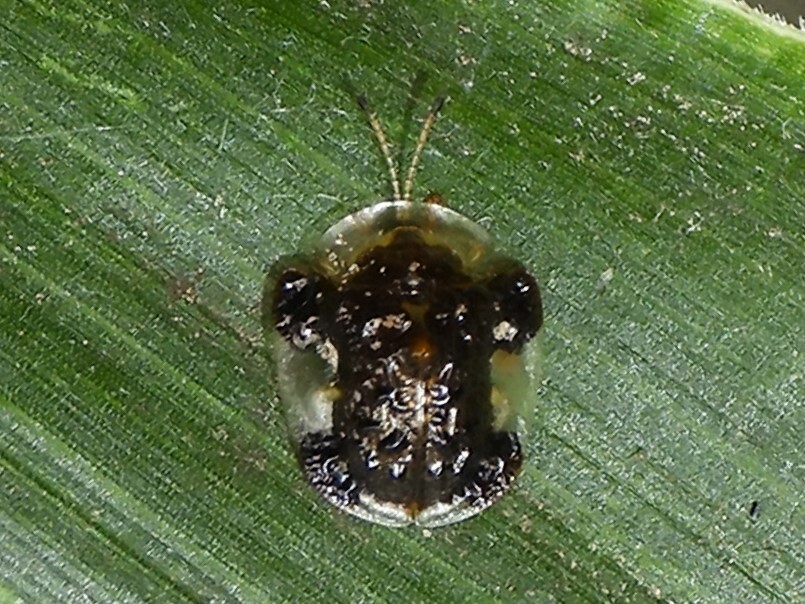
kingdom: Animalia
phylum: Arthropoda
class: Insecta
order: Coleoptera
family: Chrysomelidae
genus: Helocassis
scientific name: Helocassis clavata
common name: Clavate tortoise beetle
